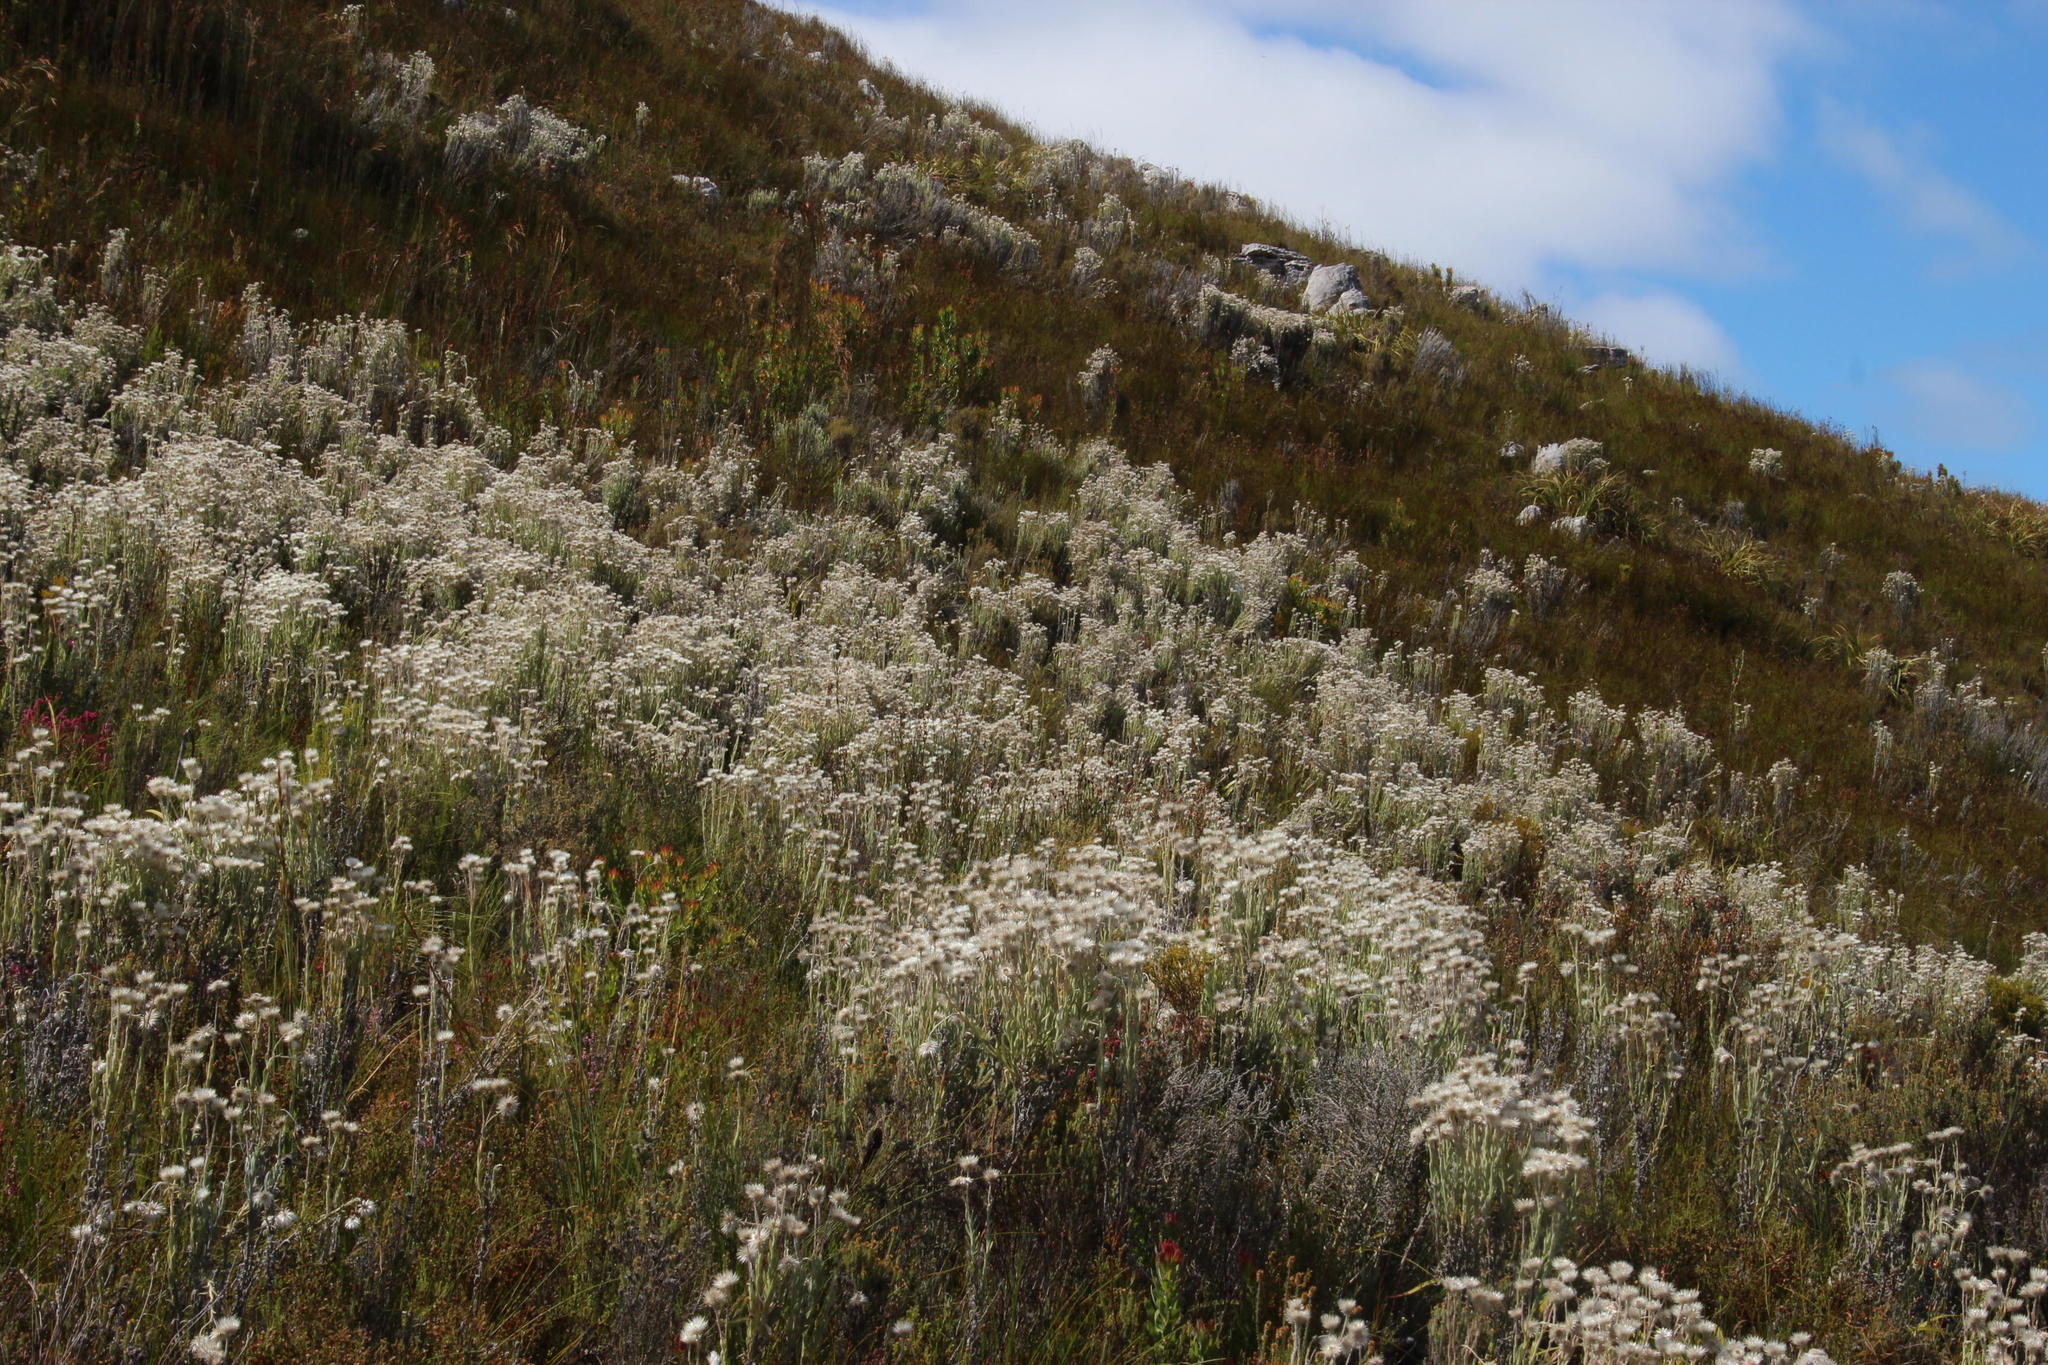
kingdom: Plantae
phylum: Tracheophyta
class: Magnoliopsida
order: Asterales
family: Asteraceae
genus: Syncarpha
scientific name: Syncarpha speciosissima
